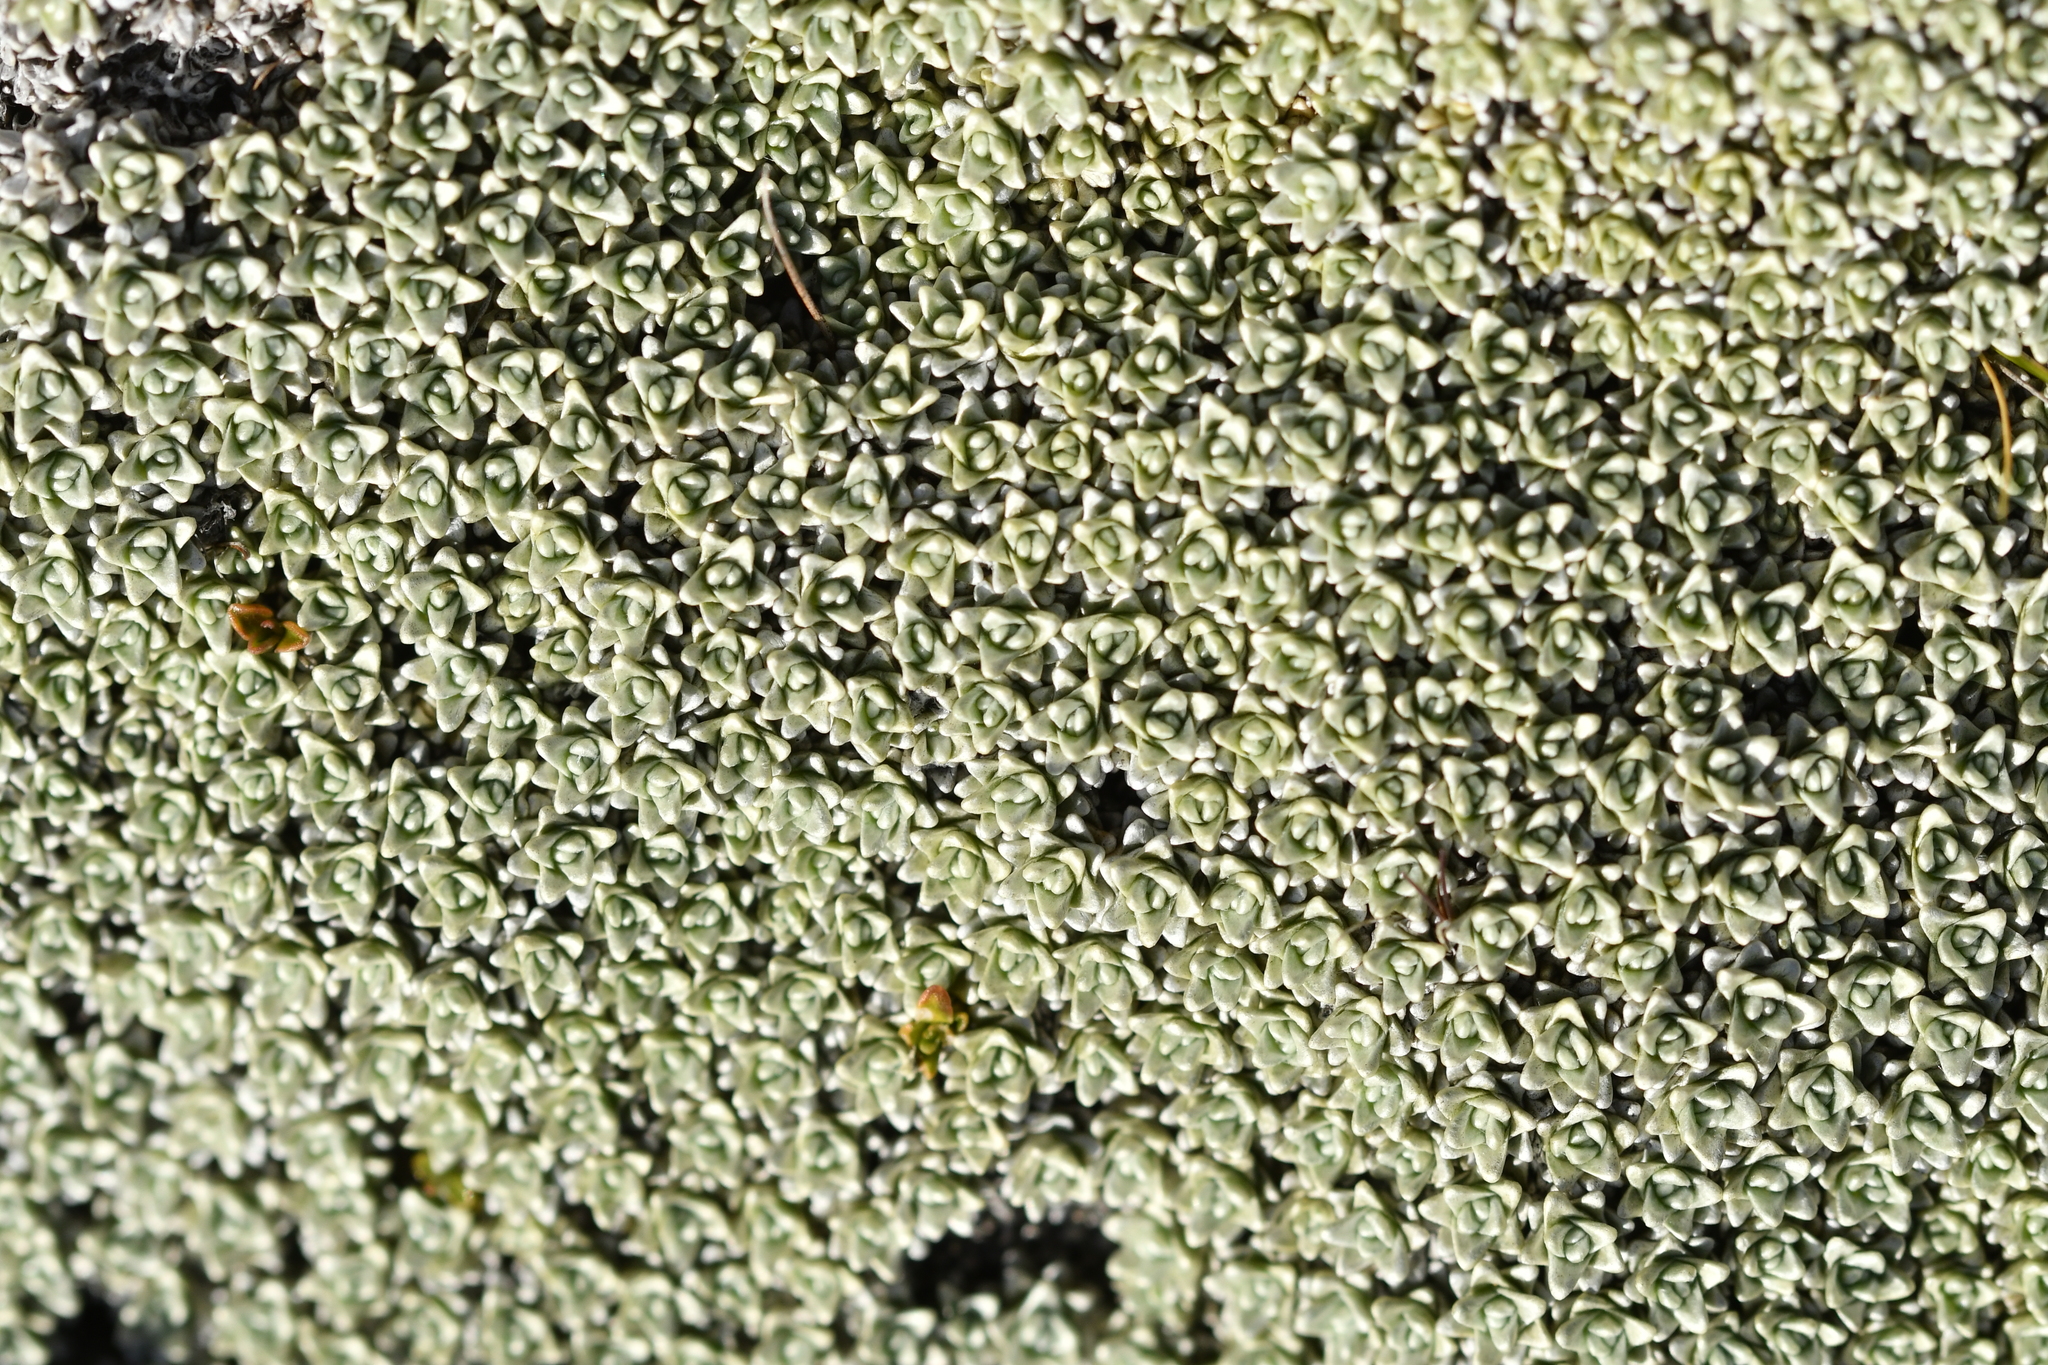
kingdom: Plantae
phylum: Tracheophyta
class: Magnoliopsida
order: Asterales
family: Asteraceae
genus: Raoulia
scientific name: Raoulia hectorii
